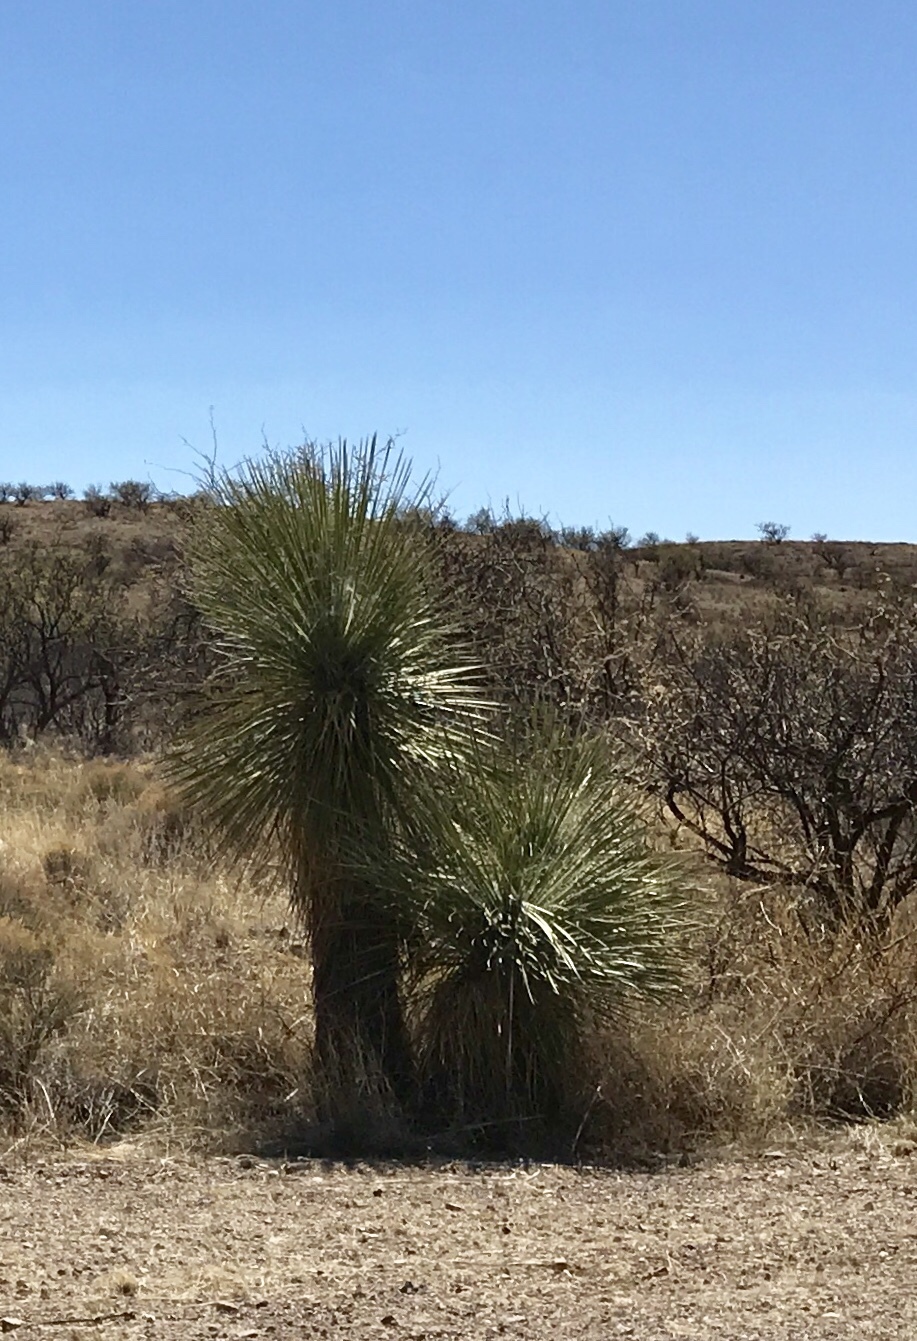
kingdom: Plantae
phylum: Tracheophyta
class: Liliopsida
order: Asparagales
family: Asparagaceae
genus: Yucca
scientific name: Yucca elata
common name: Palmella
